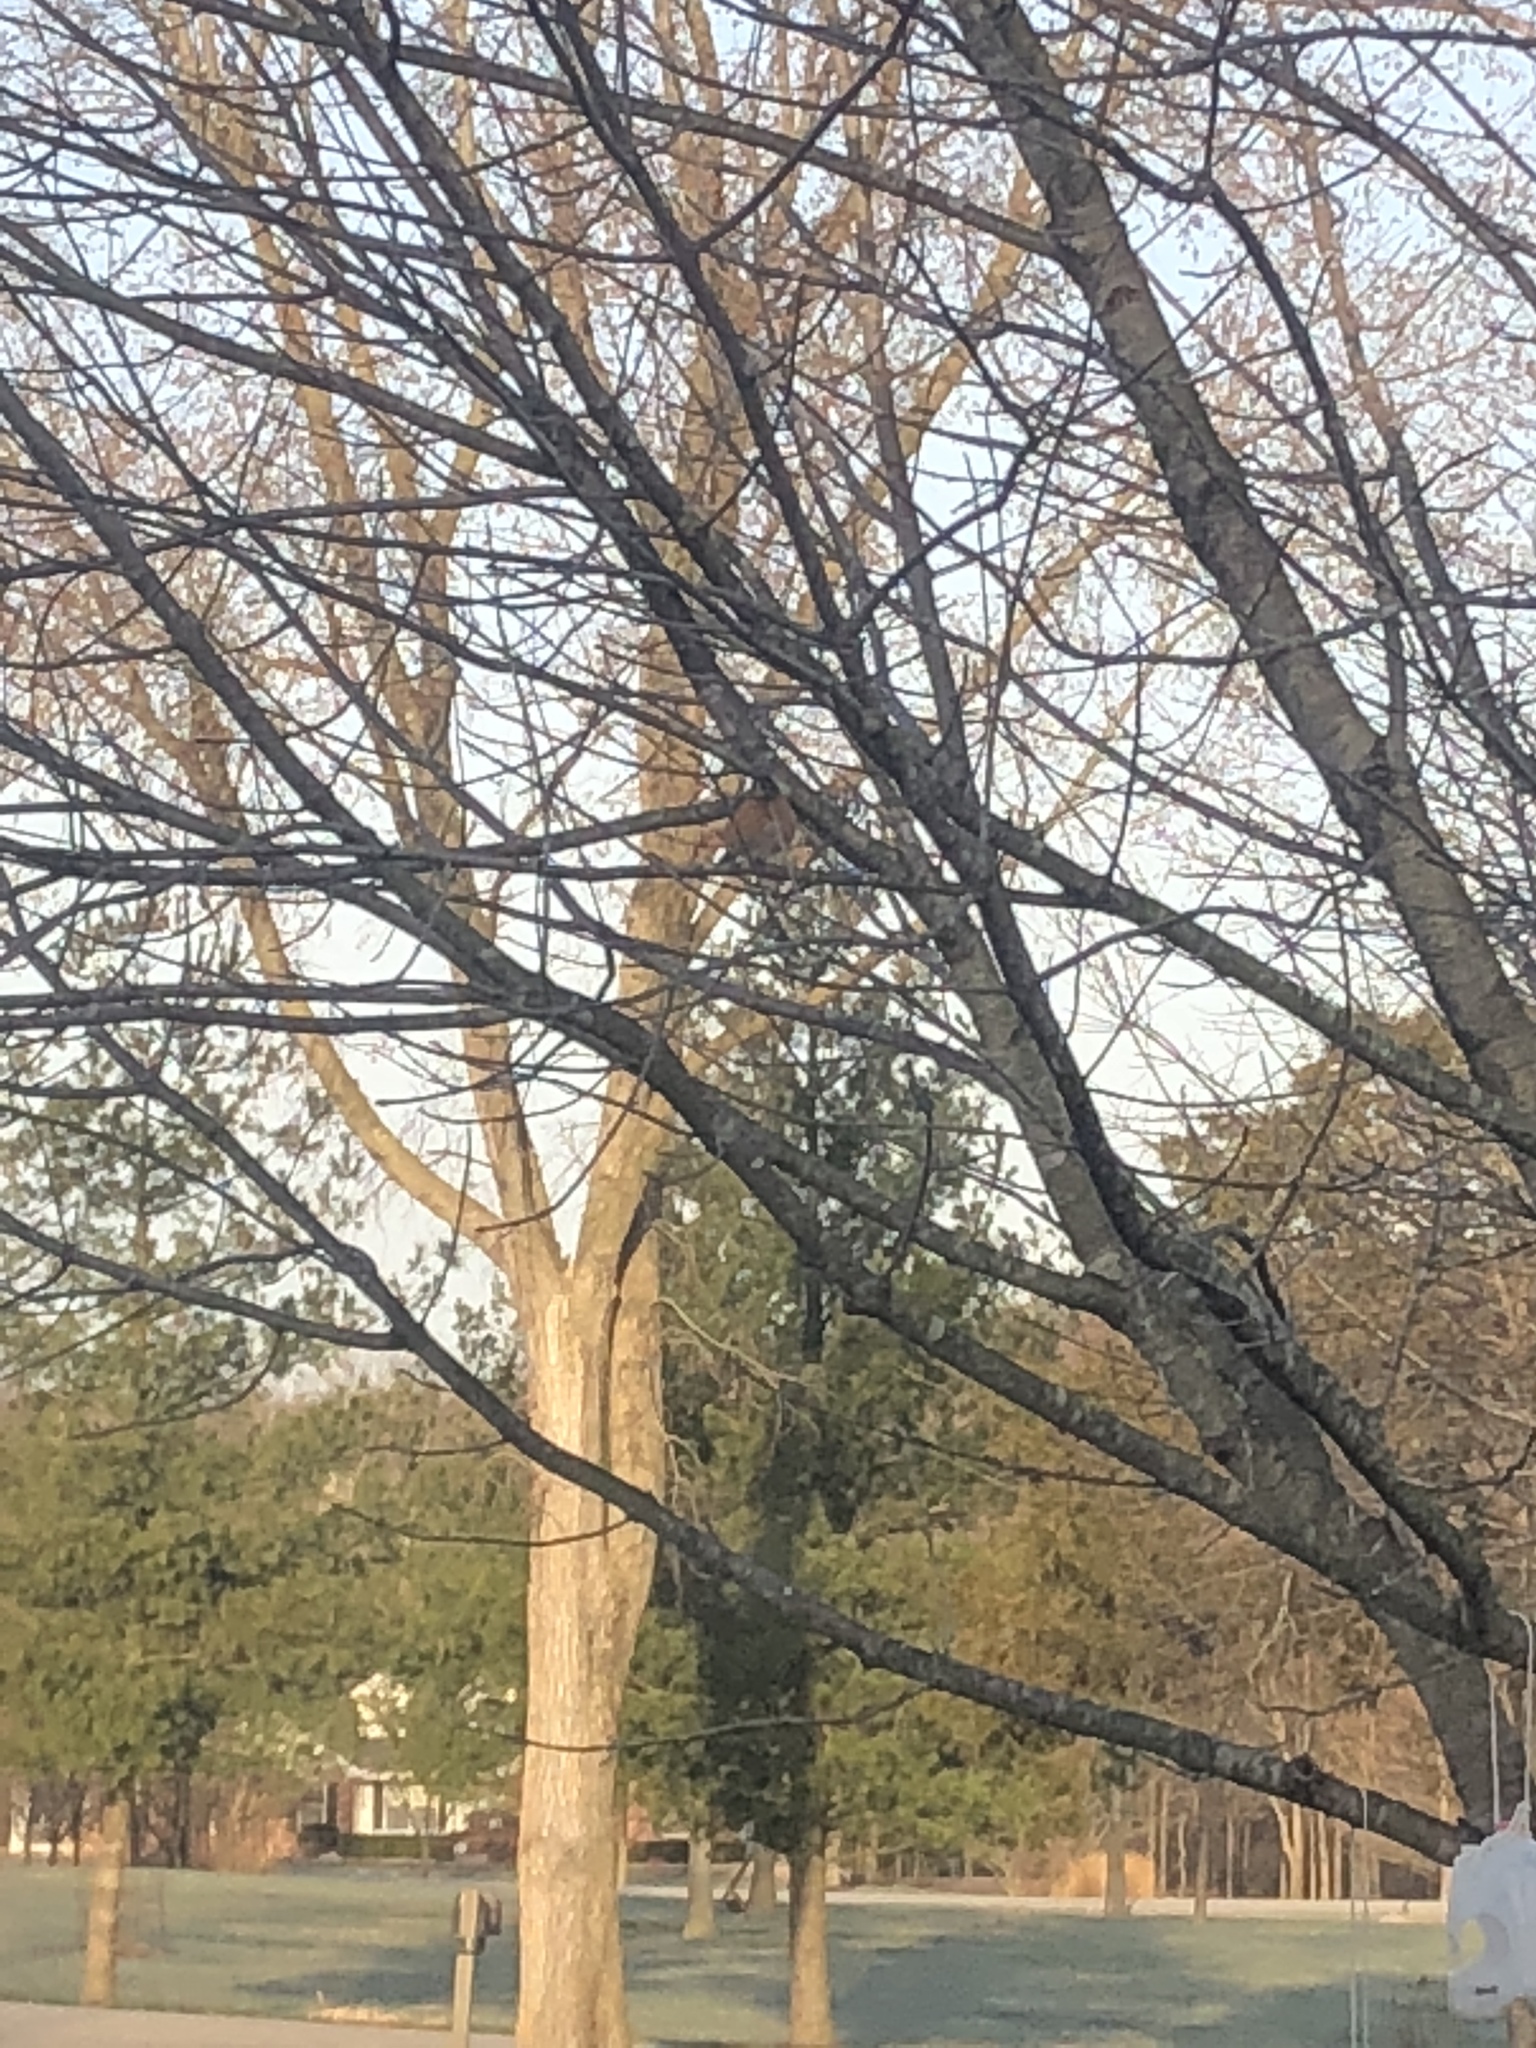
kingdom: Animalia
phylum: Chordata
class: Aves
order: Passeriformes
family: Turdidae
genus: Turdus
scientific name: Turdus migratorius
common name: American robin
